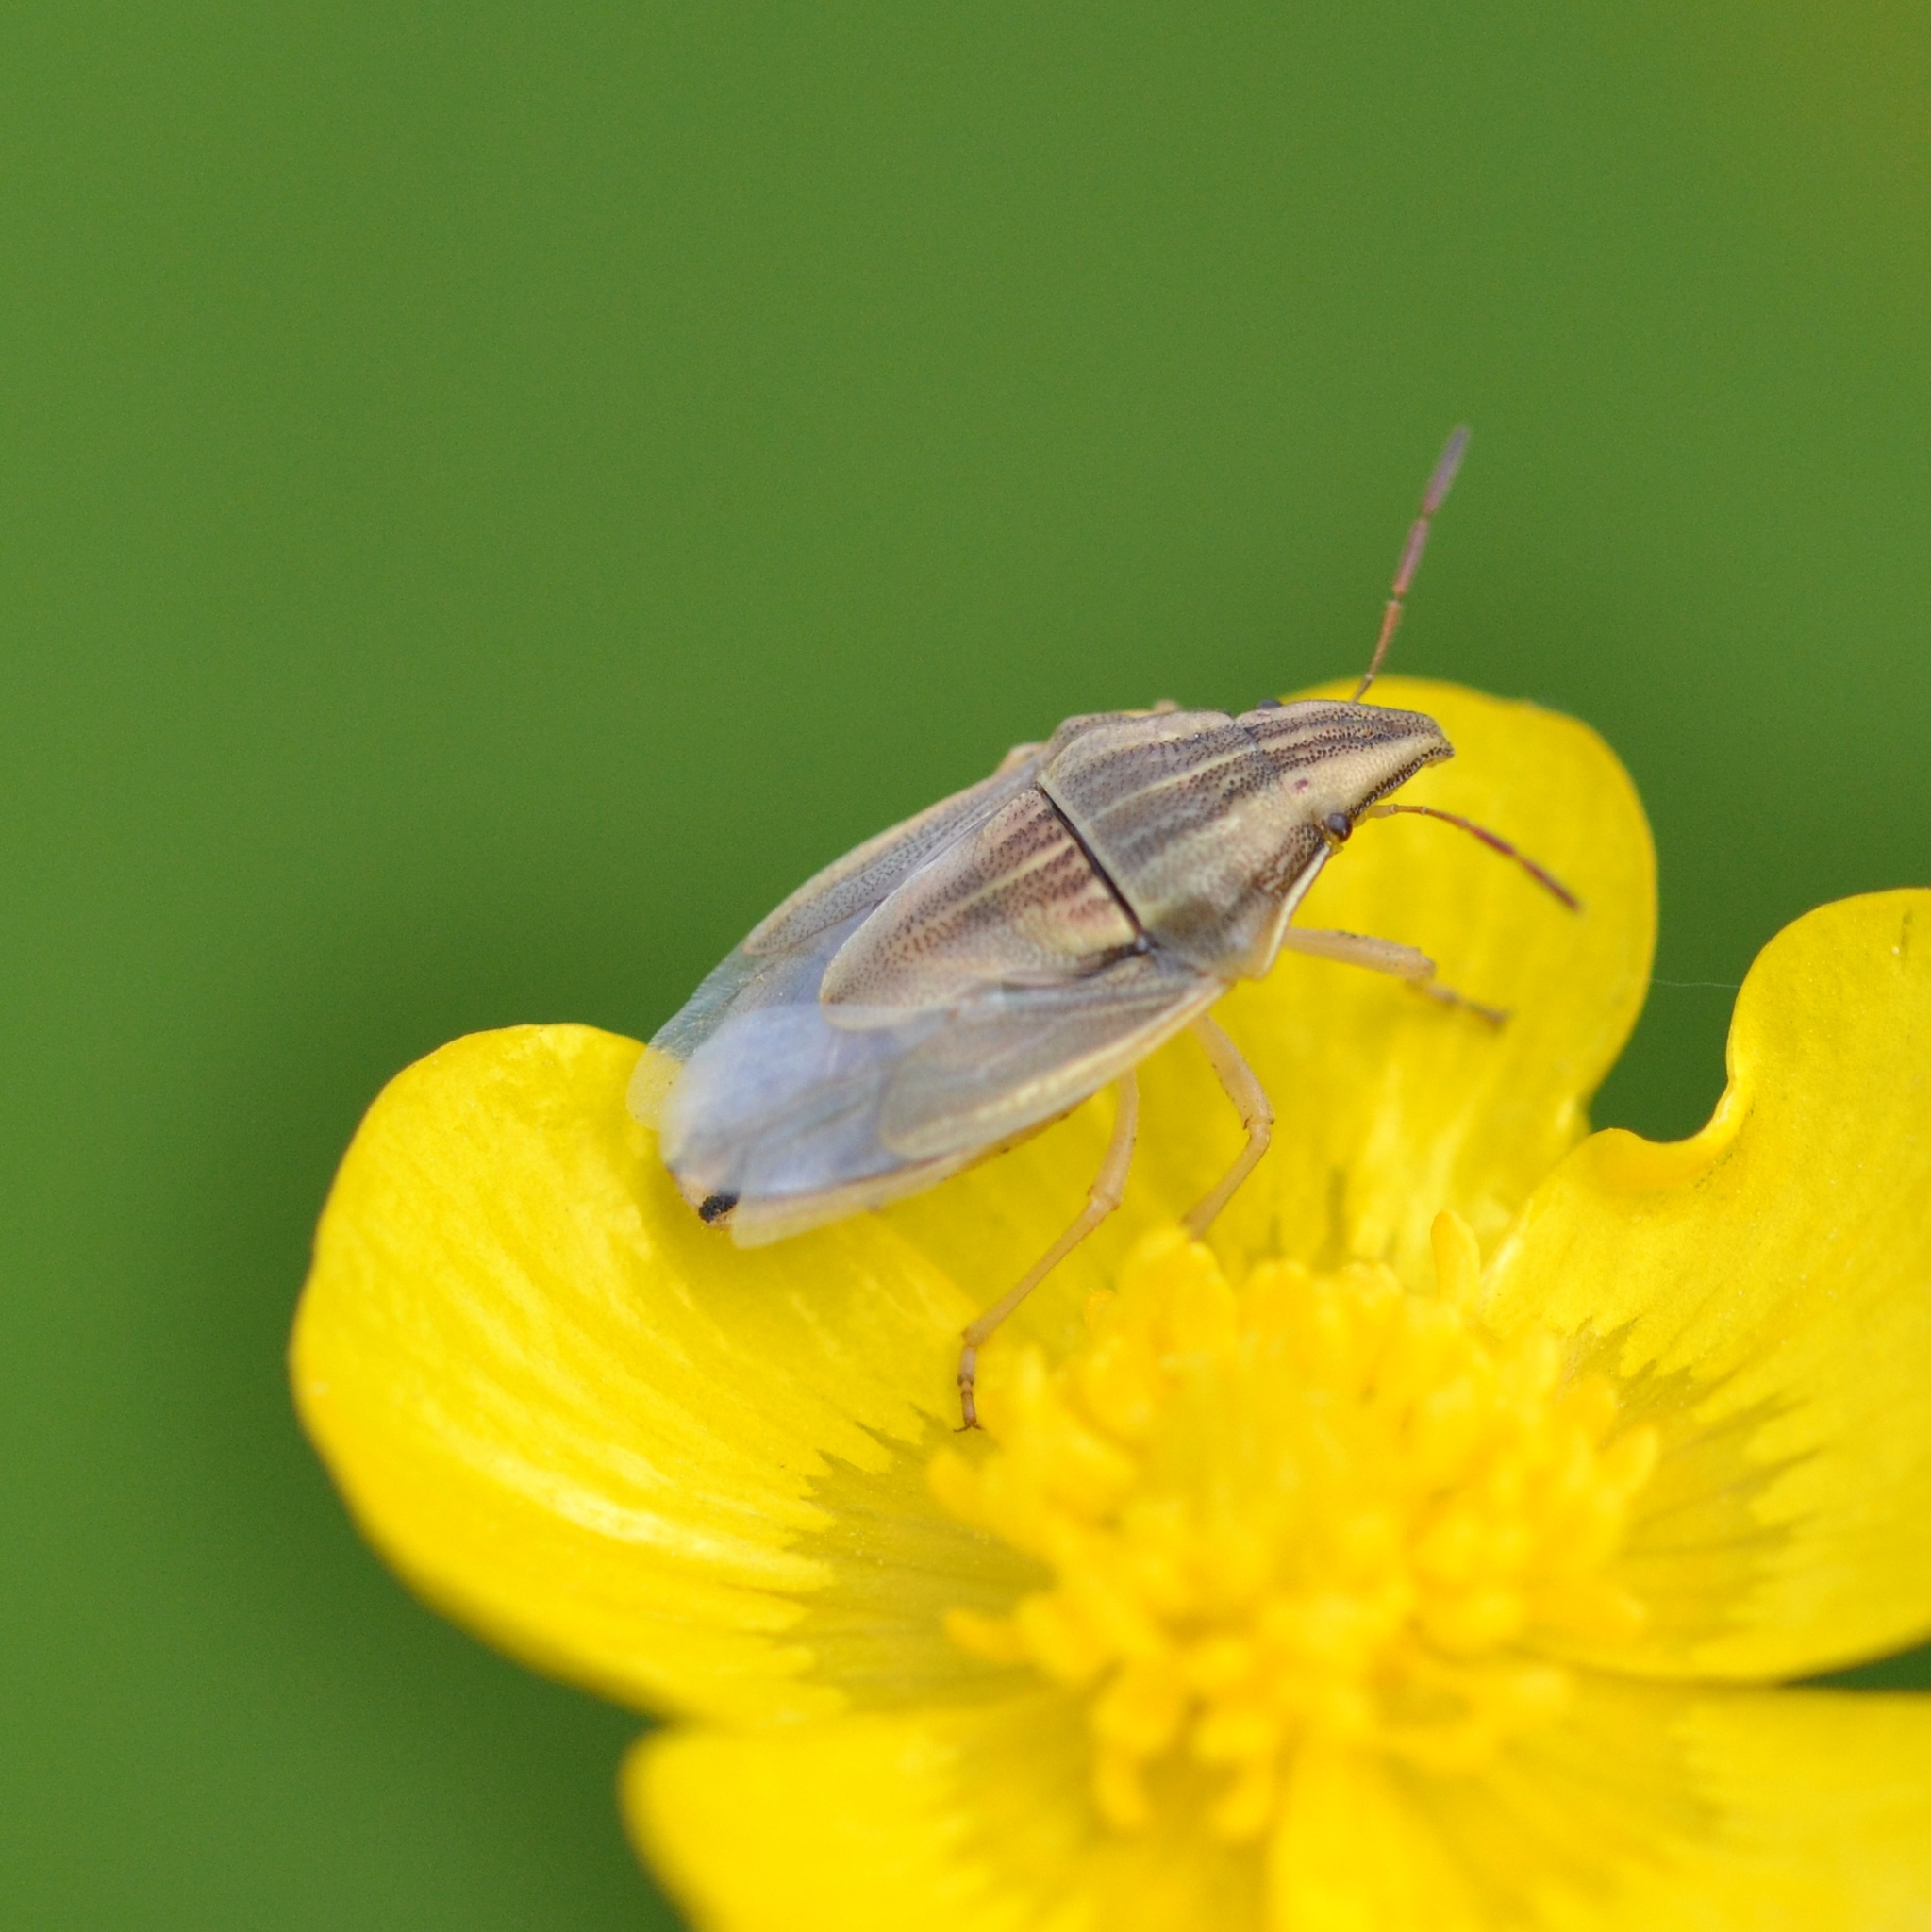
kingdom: Animalia
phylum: Arthropoda
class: Insecta
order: Hemiptera
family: Pentatomidae
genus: Aelia
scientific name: Aelia acuminata
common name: Bishop's mitre
